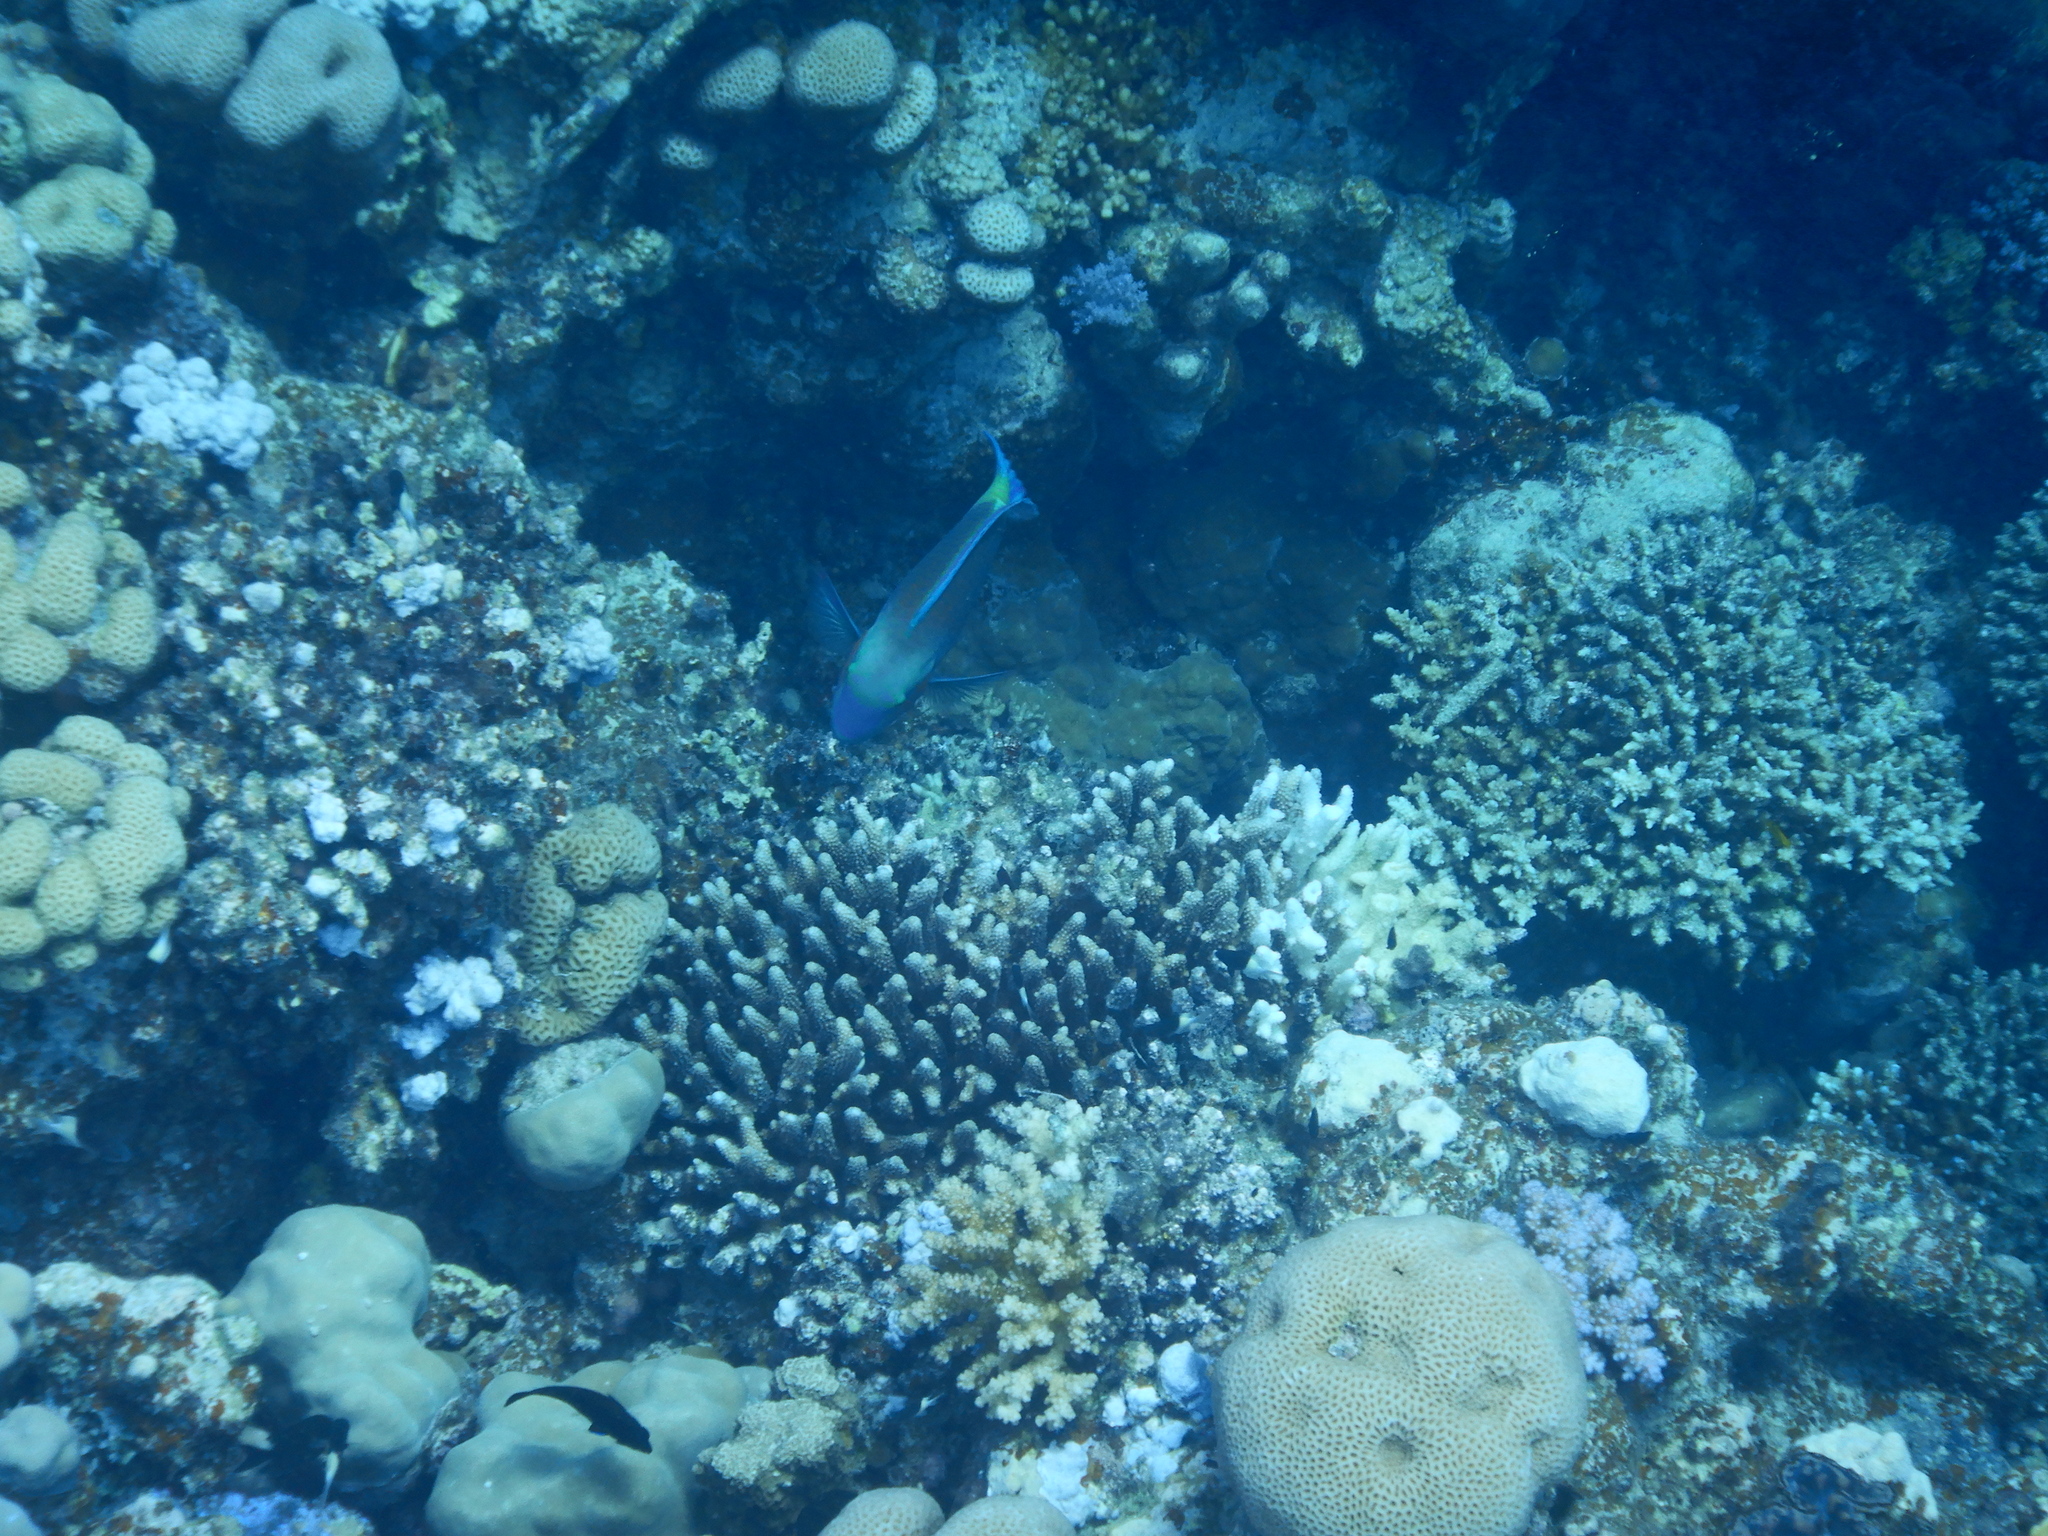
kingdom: Animalia
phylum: Chordata
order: Perciformes
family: Scaridae
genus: Chlorurus
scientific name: Chlorurus sordidus
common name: Bullethead parrotfish
